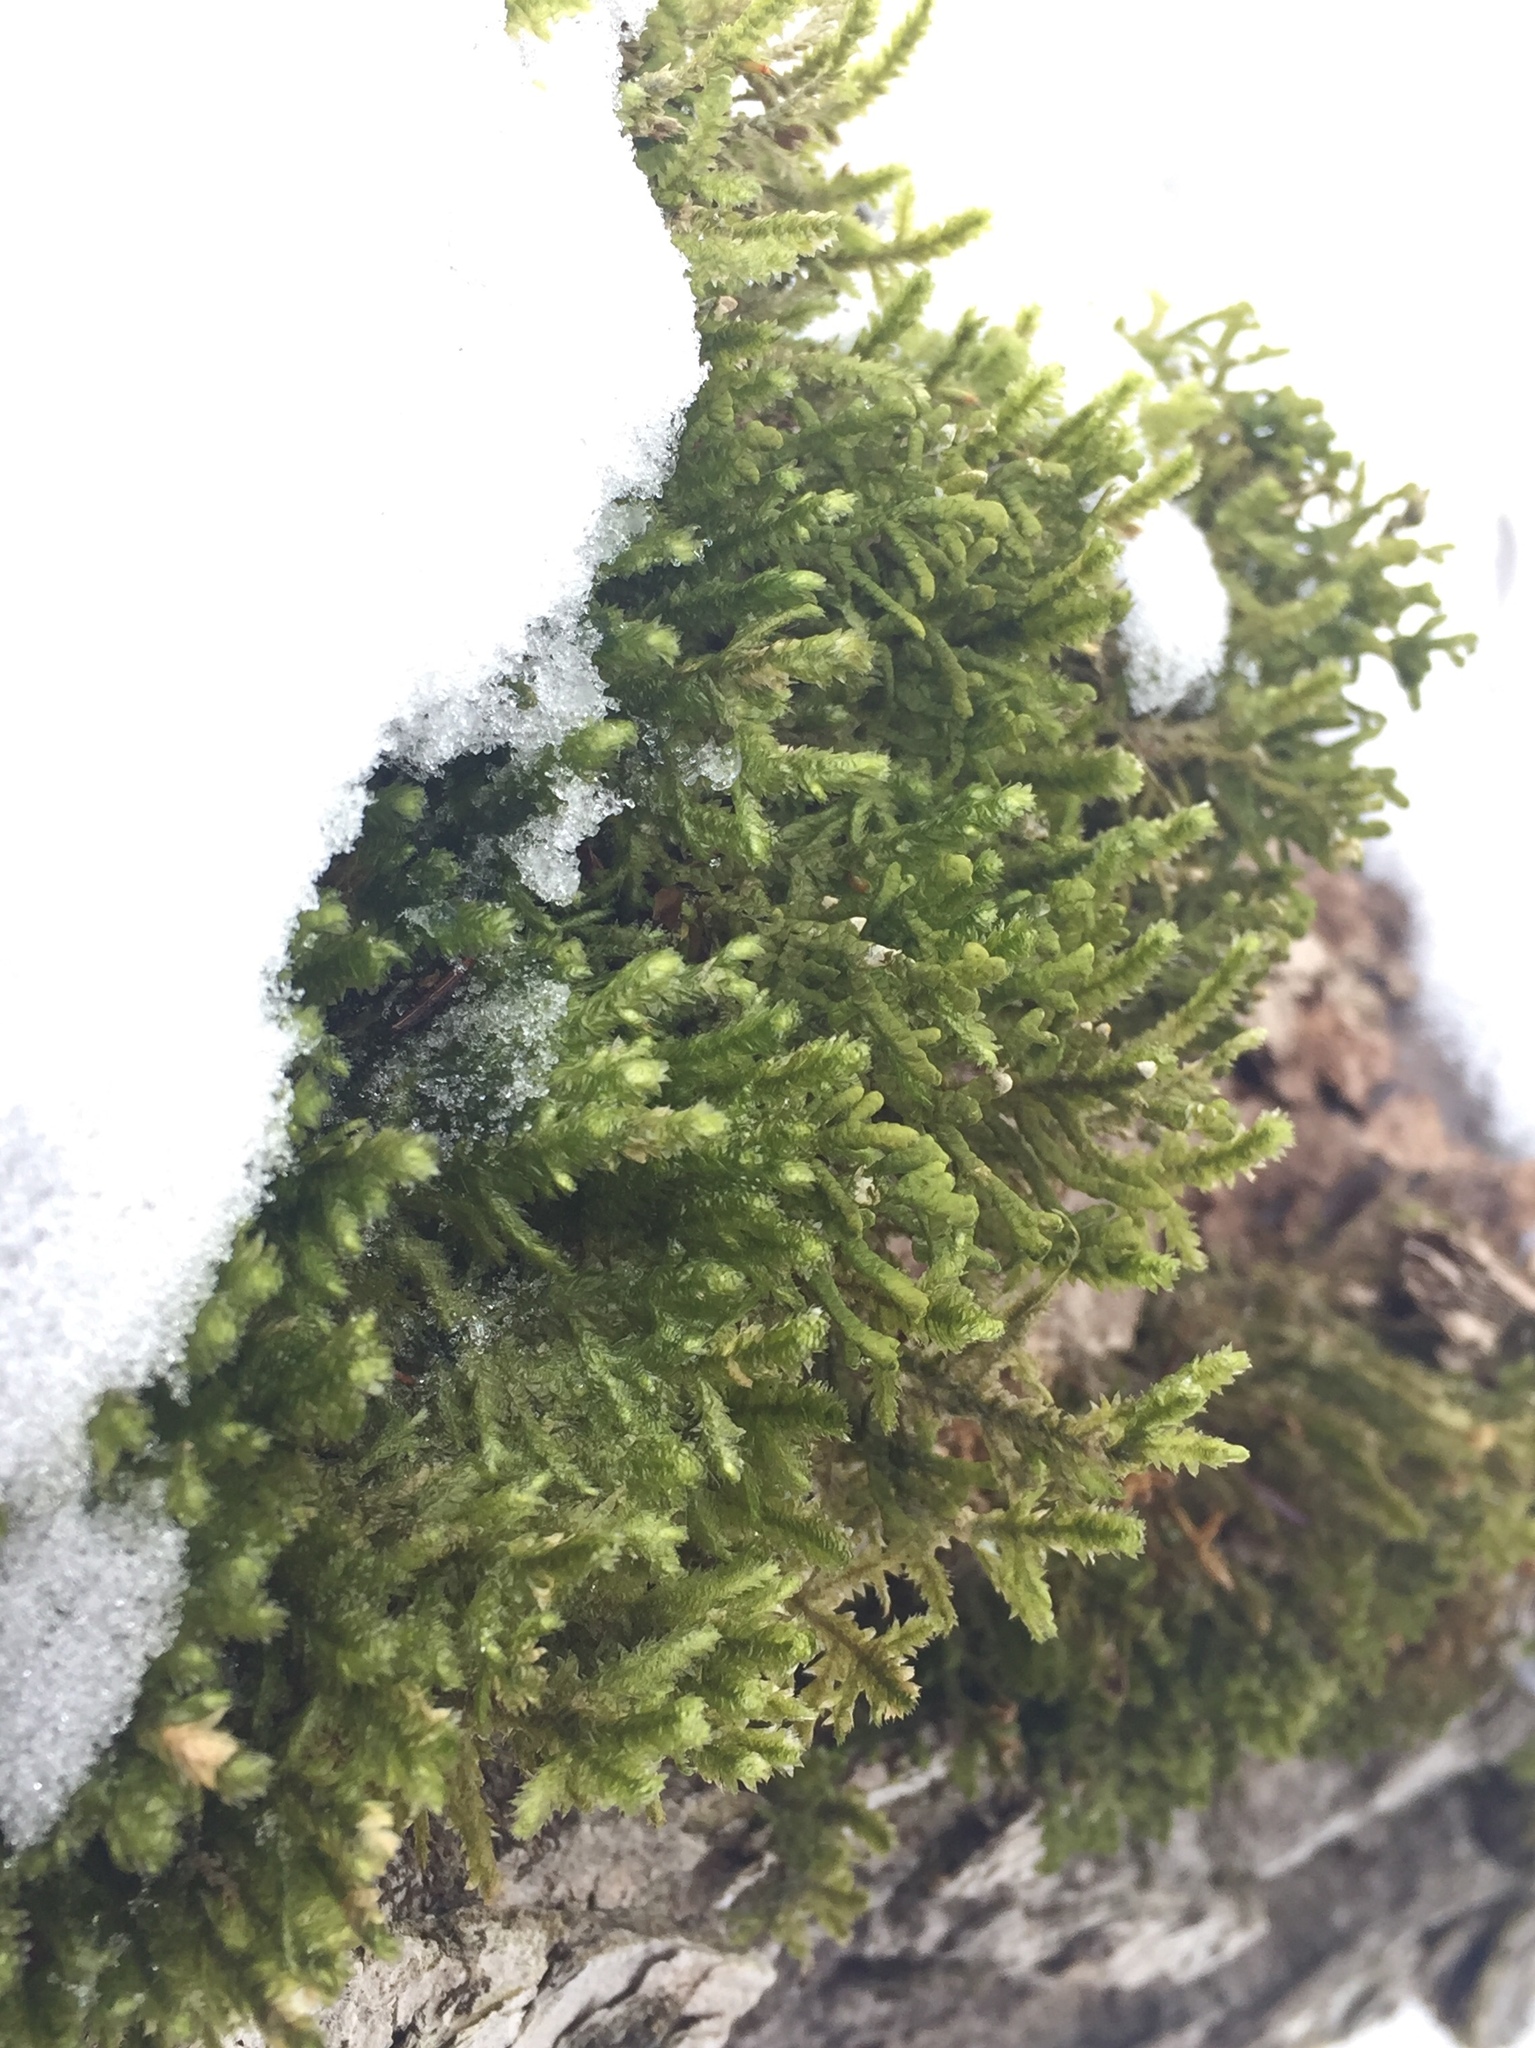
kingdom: Plantae
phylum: Bryophyta
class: Bryopsida
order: Hypnales
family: Neckeraceae
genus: Neckera
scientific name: Neckera pennata
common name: Feathery neckera
